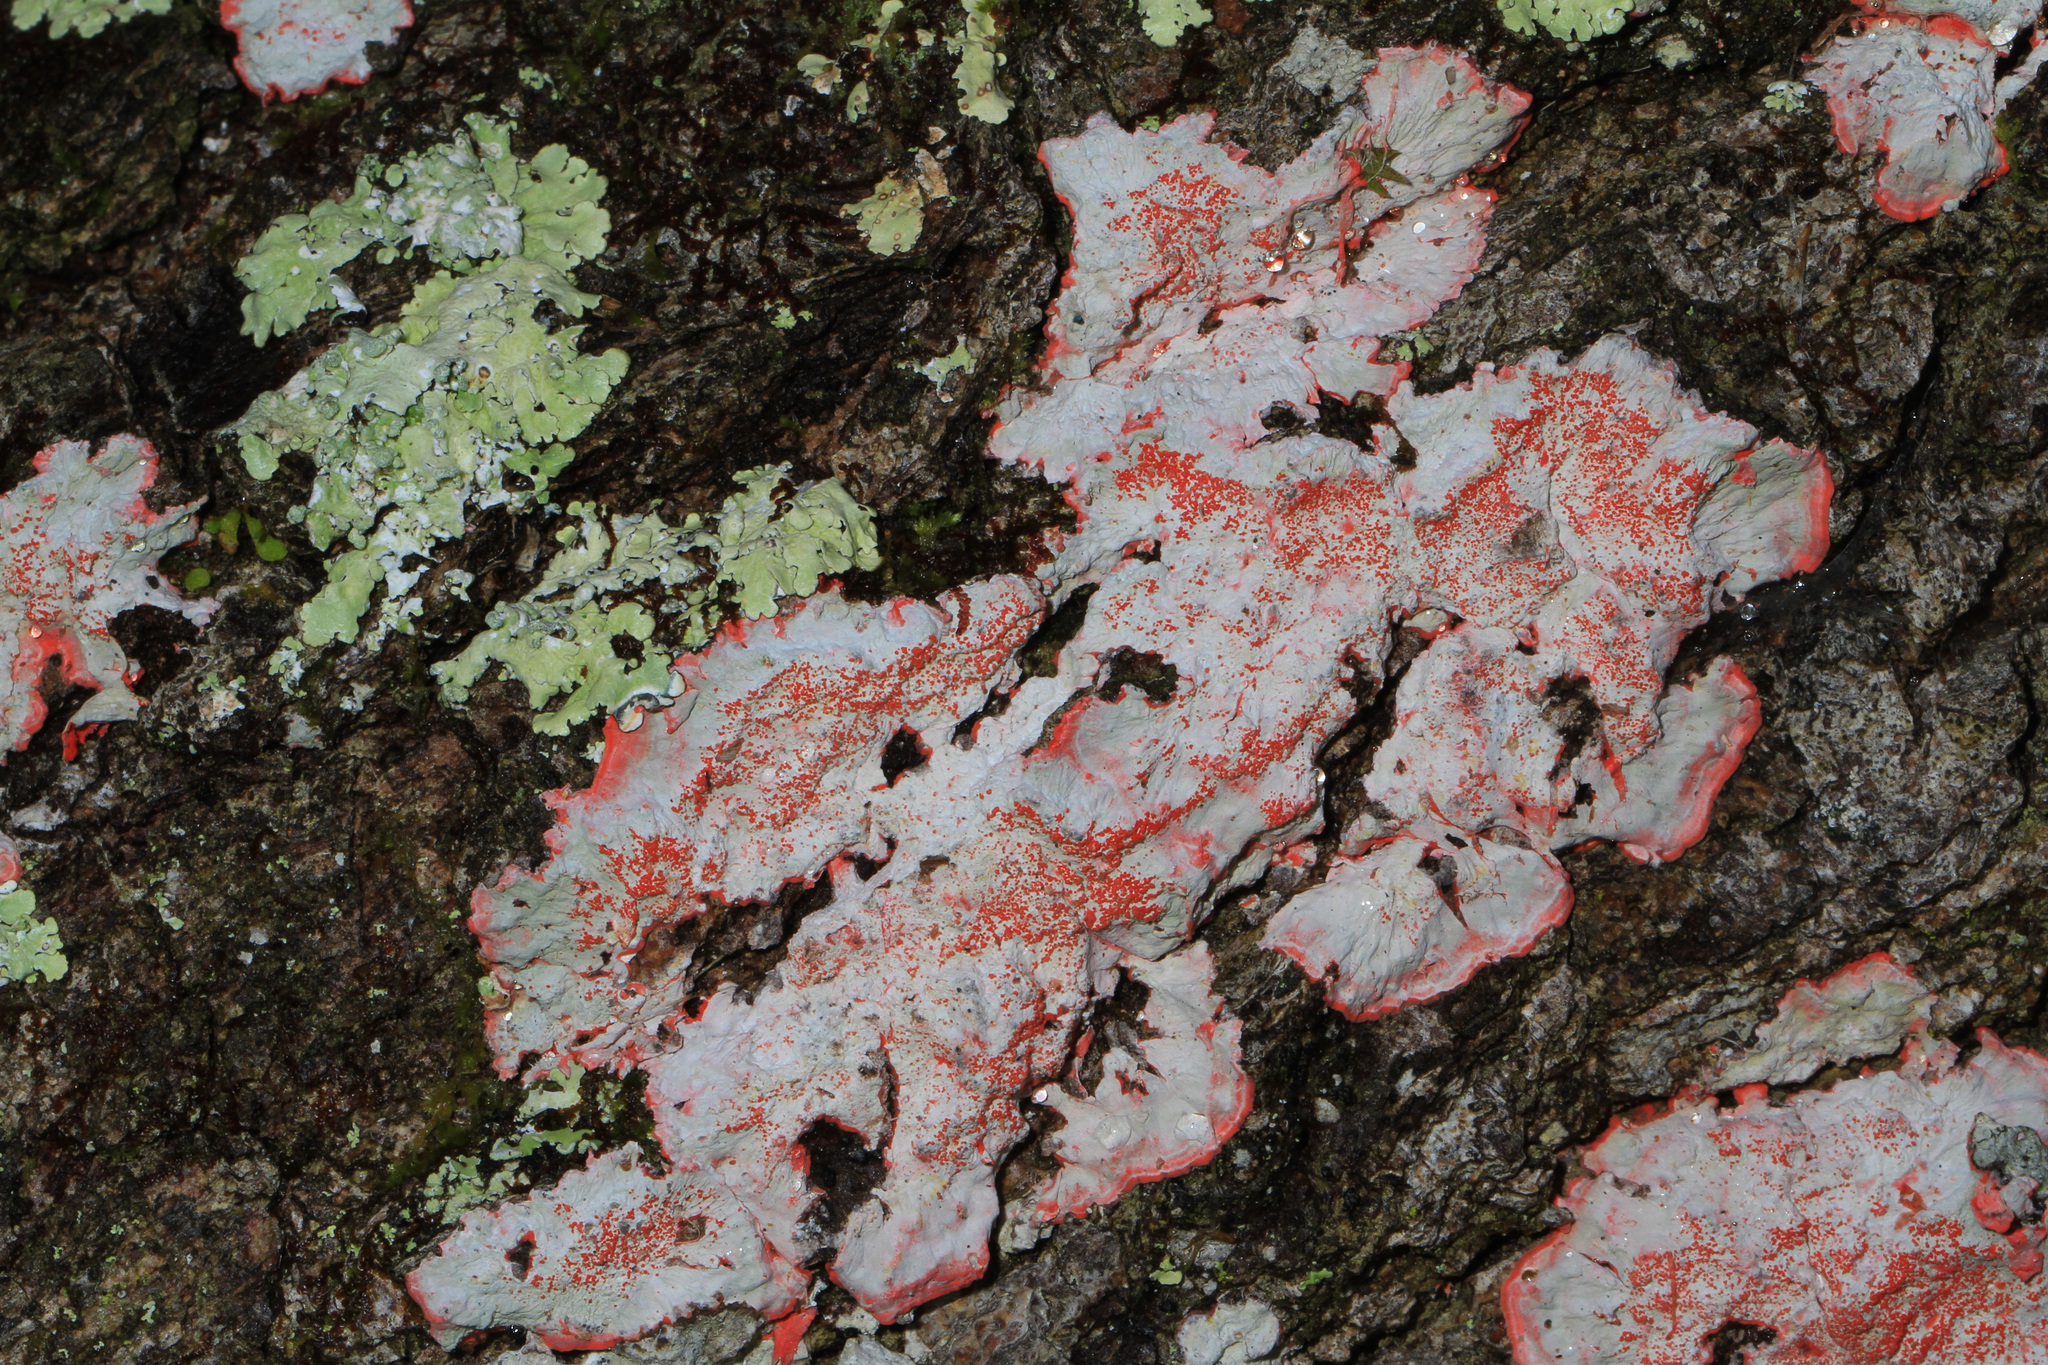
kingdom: Fungi
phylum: Ascomycota
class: Arthoniomycetes
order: Arthoniales
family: Arthoniaceae
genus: Herpothallon
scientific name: Herpothallon rubrocinctum
